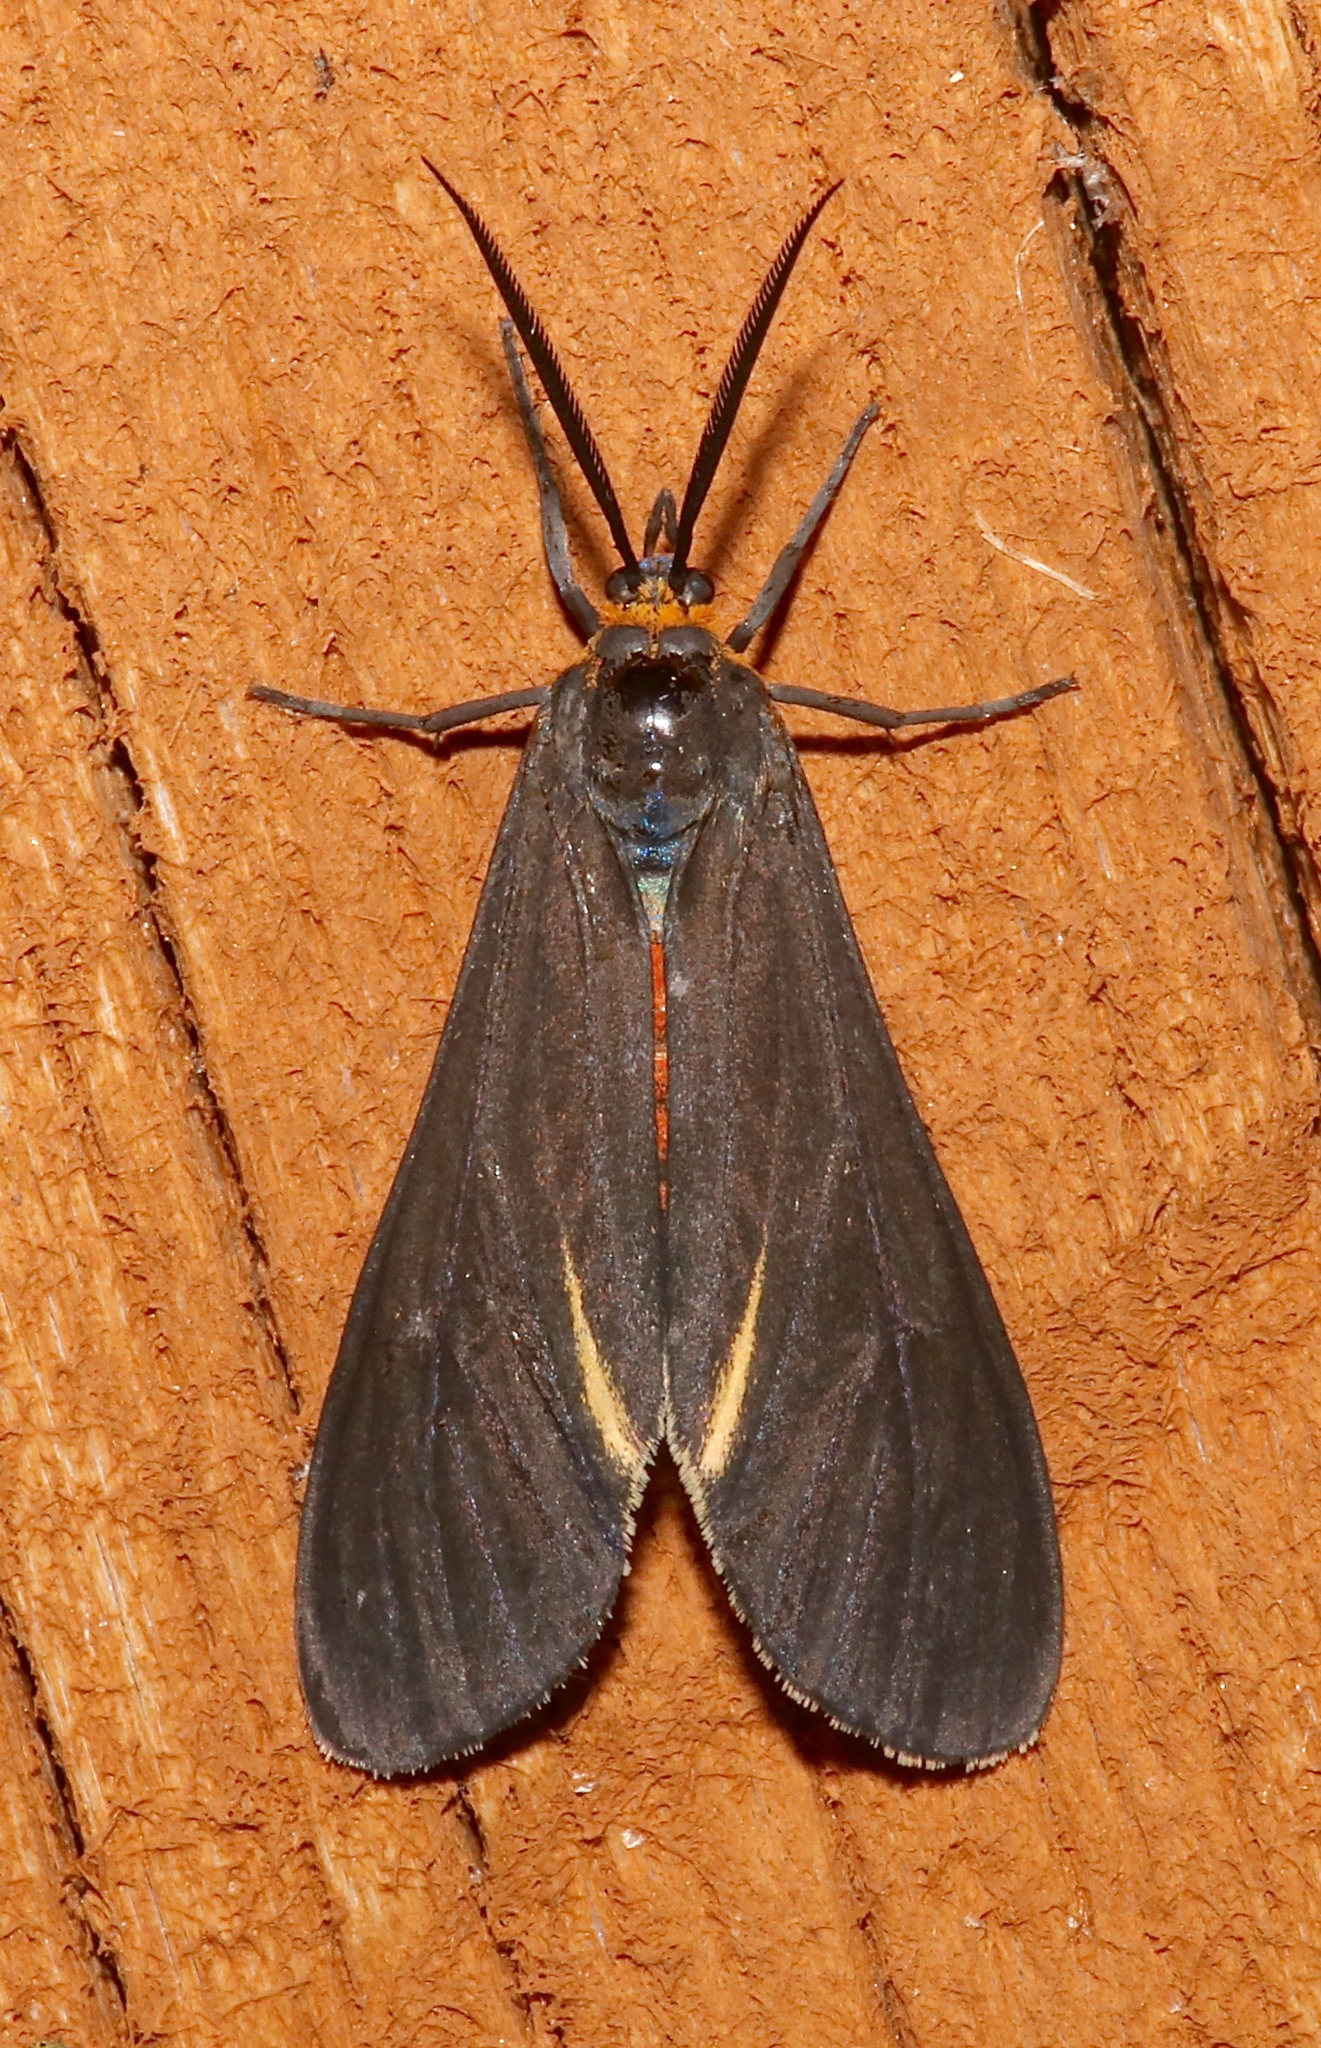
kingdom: Animalia
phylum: Arthropoda
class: Insecta
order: Lepidoptera
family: Erebidae
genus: Dahana
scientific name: Dahana atripennis
